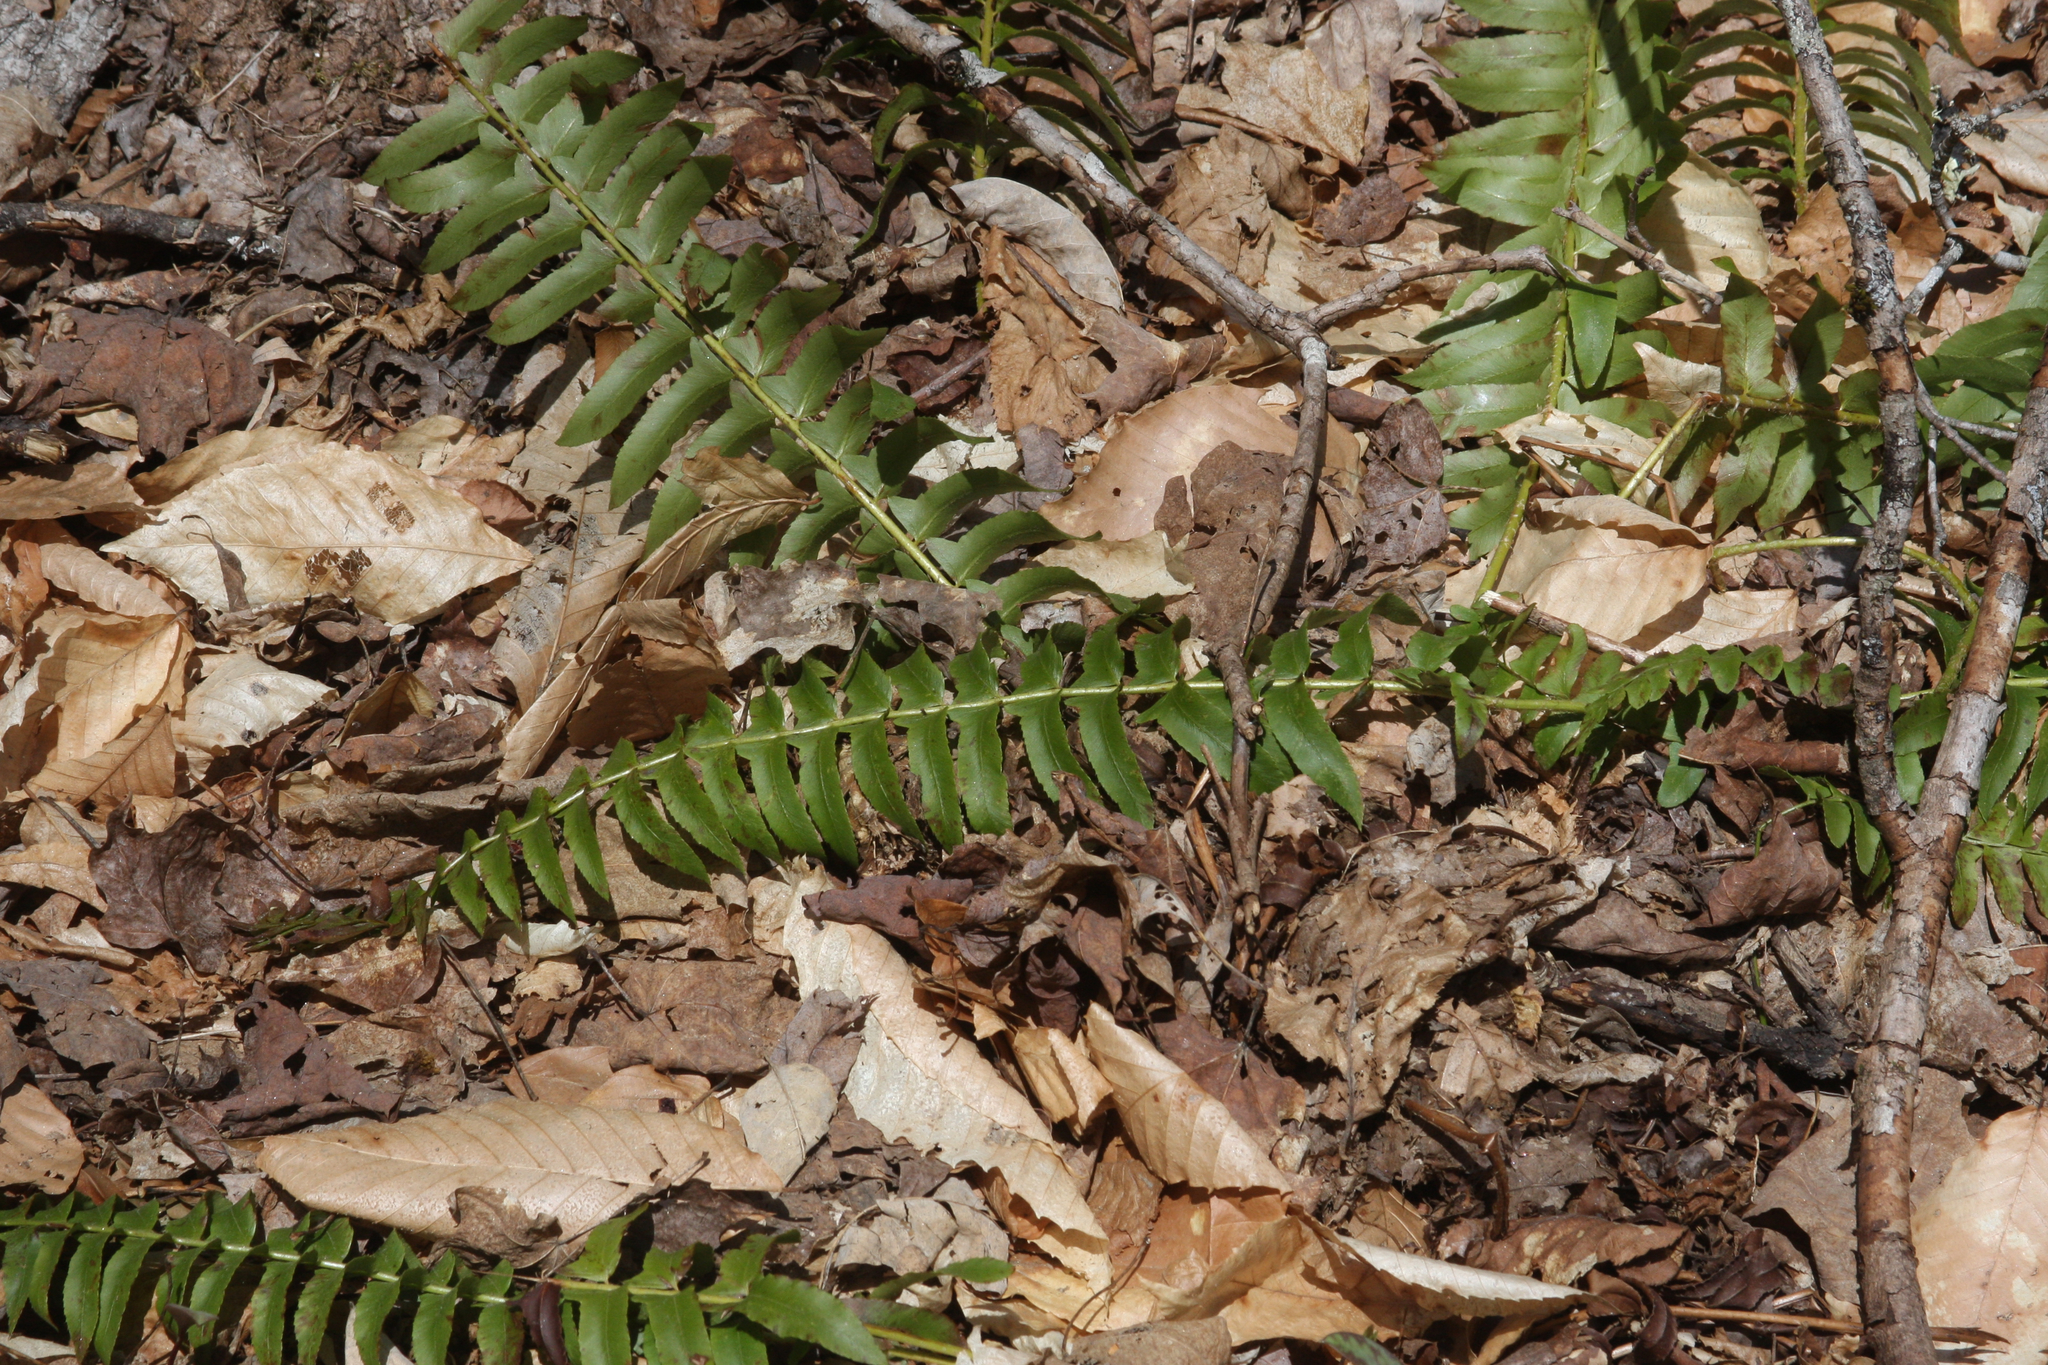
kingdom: Plantae
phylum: Tracheophyta
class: Polypodiopsida
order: Polypodiales
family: Dryopteridaceae
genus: Polystichum
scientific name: Polystichum acrostichoides
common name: Christmas fern
